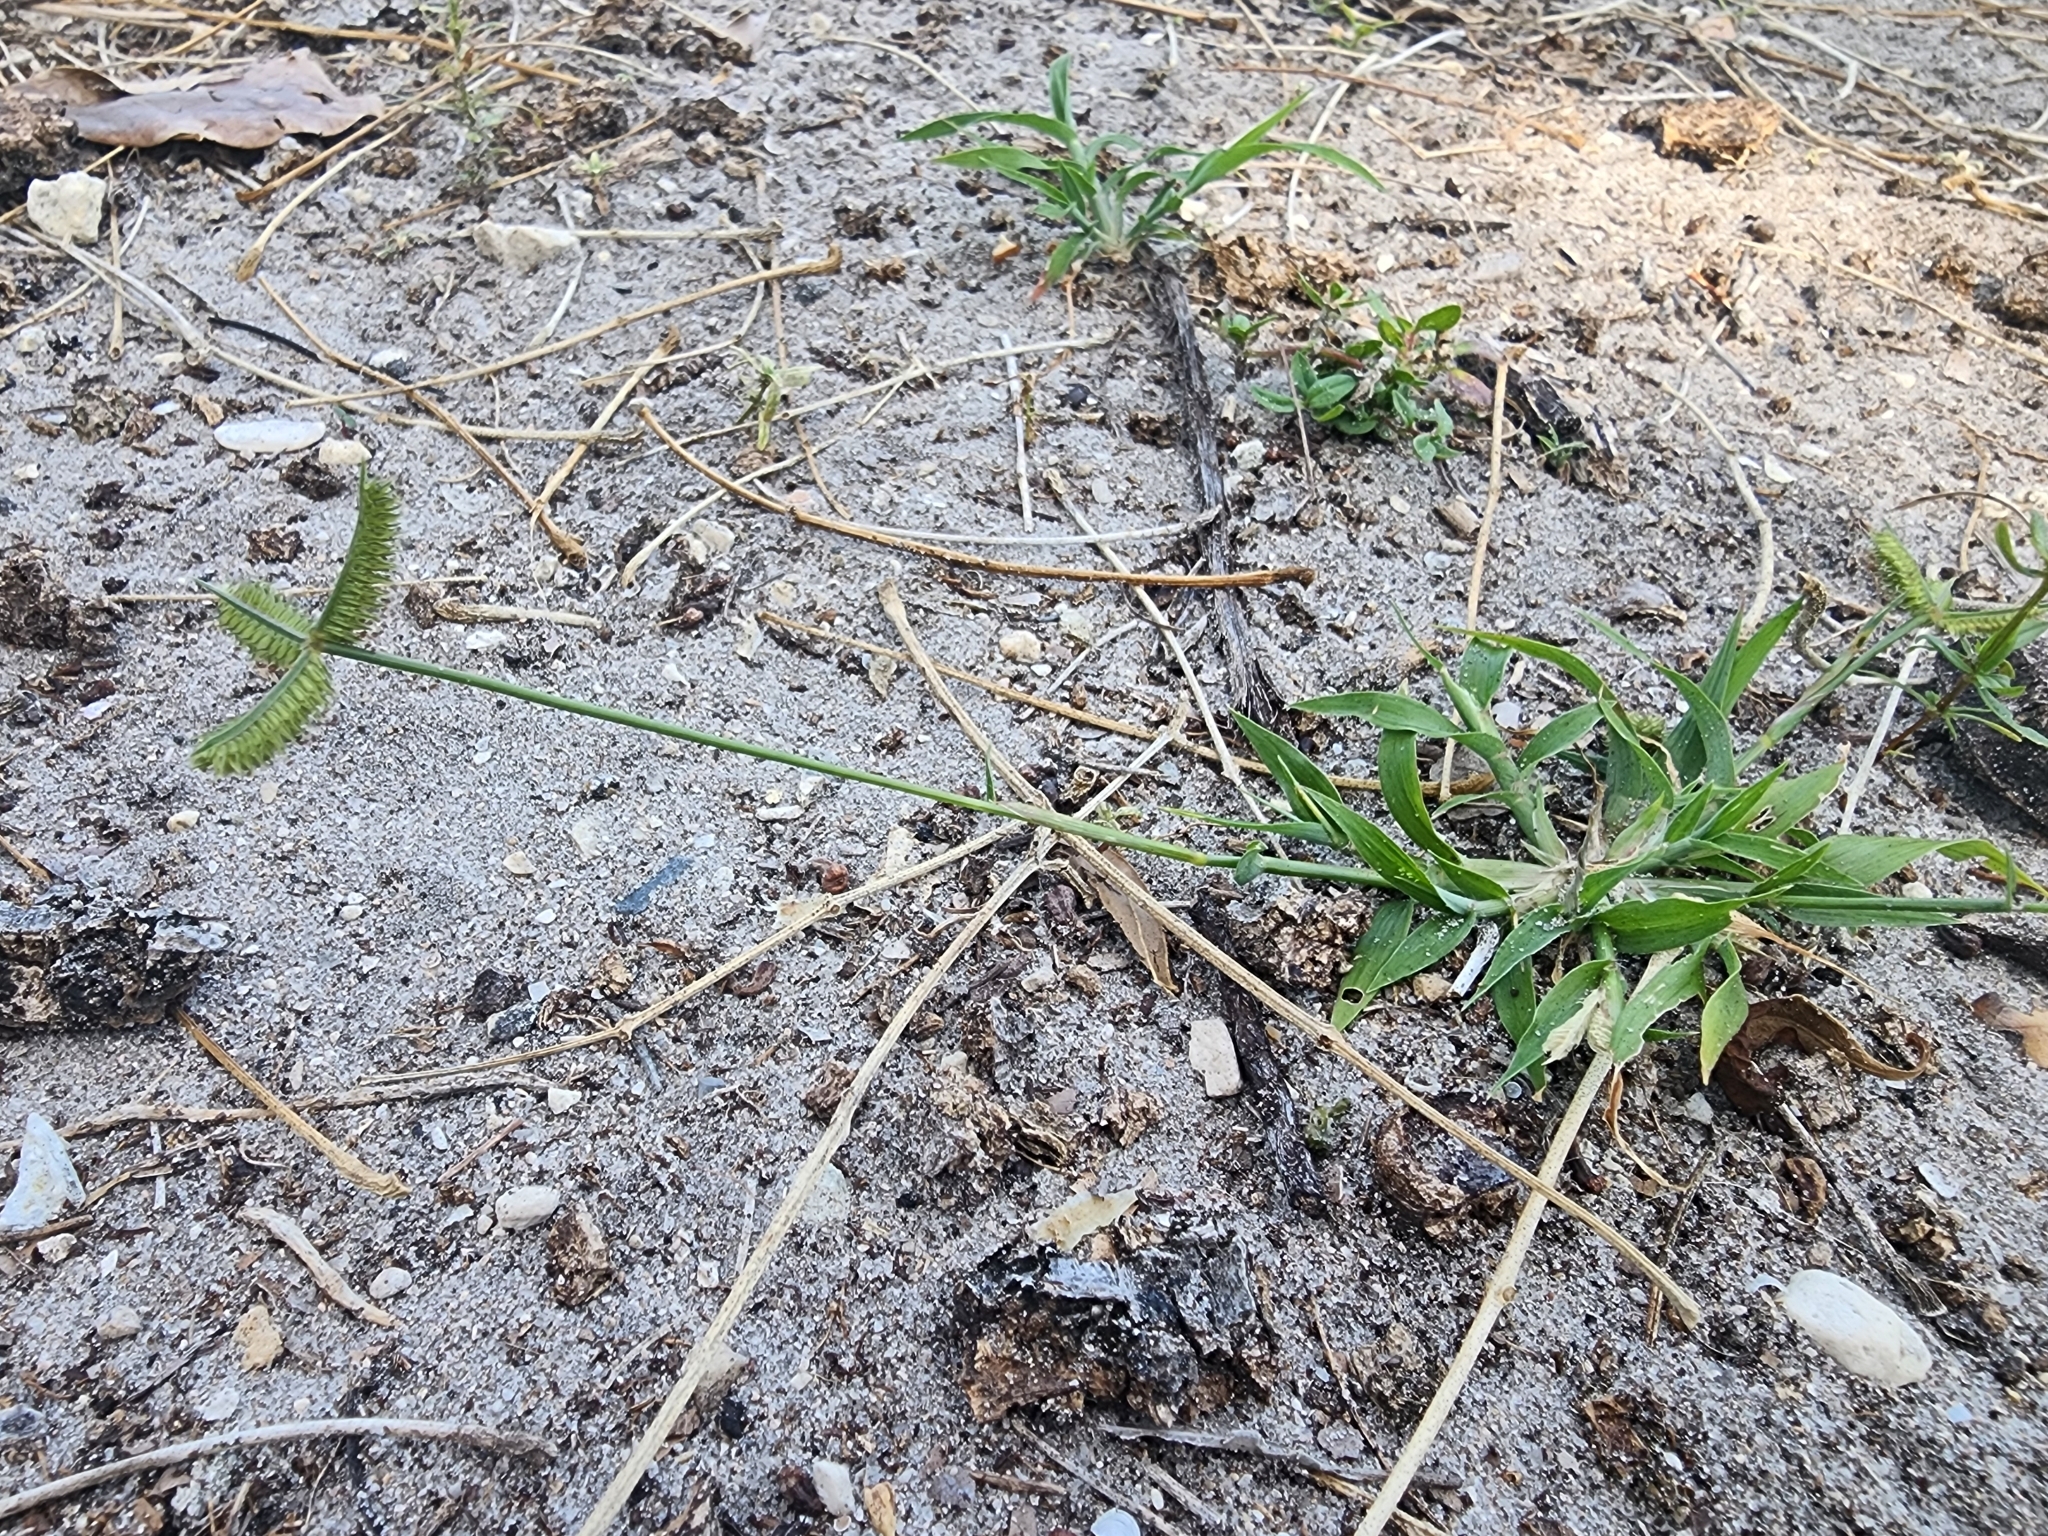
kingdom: Plantae
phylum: Tracheophyta
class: Liliopsida
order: Poales
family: Poaceae
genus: Dactyloctenium
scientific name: Dactyloctenium aegyptium
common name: Egyptian grass
